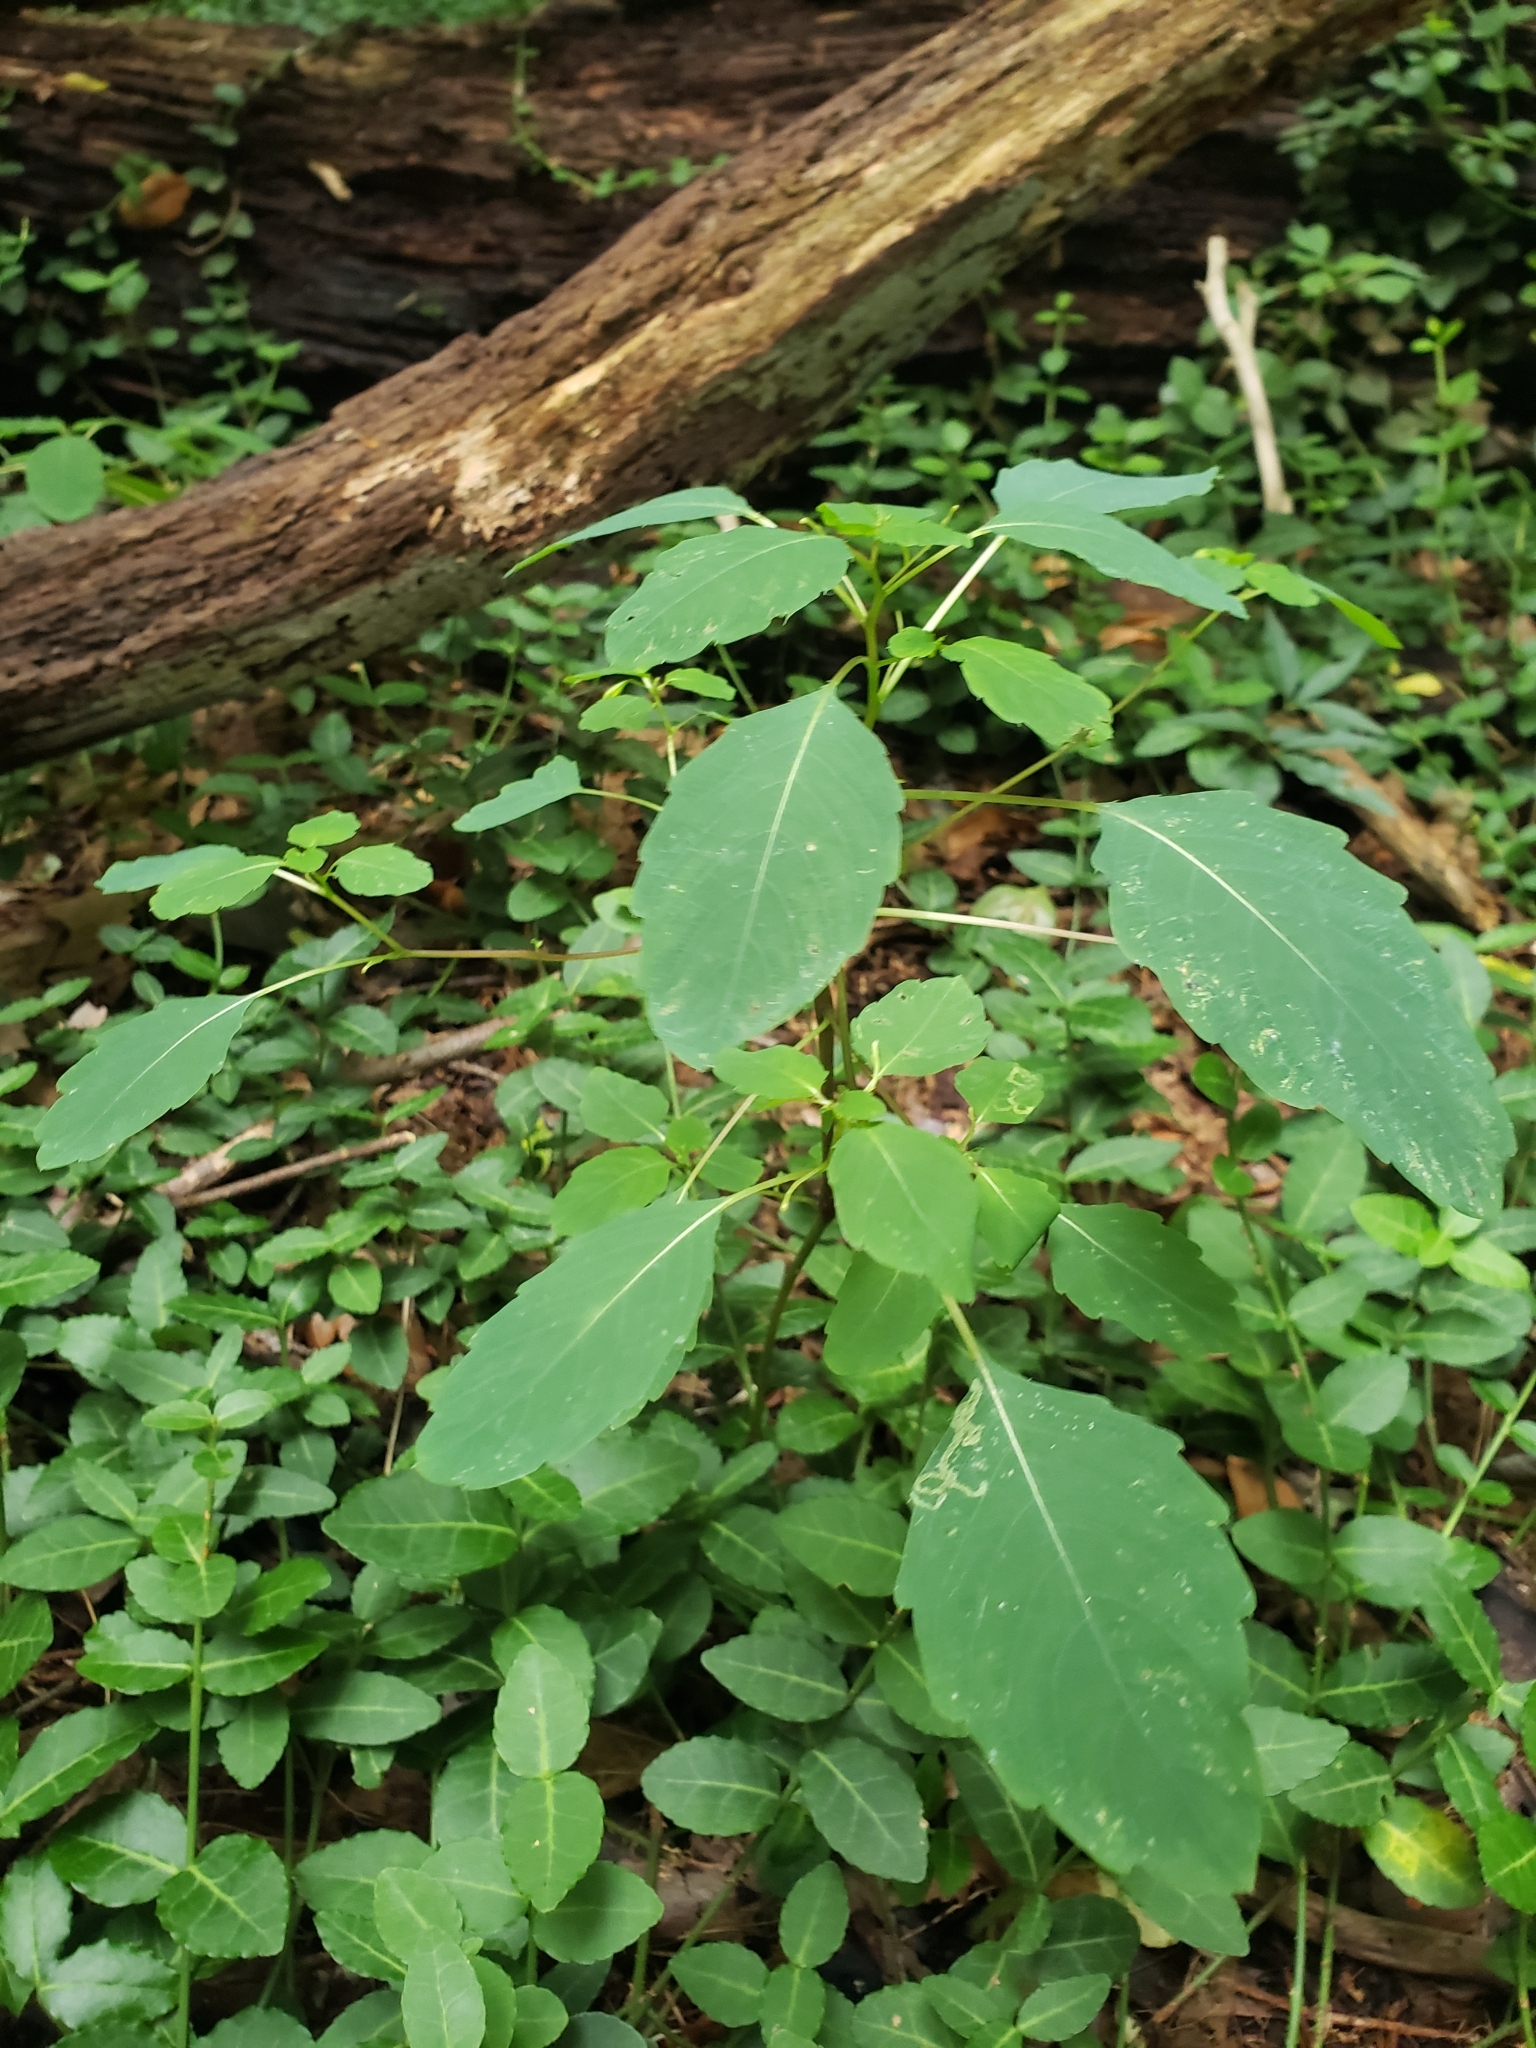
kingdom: Plantae
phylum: Tracheophyta
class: Magnoliopsida
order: Ericales
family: Balsaminaceae
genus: Impatiens
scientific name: Impatiens pallida
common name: Pale snapweed
